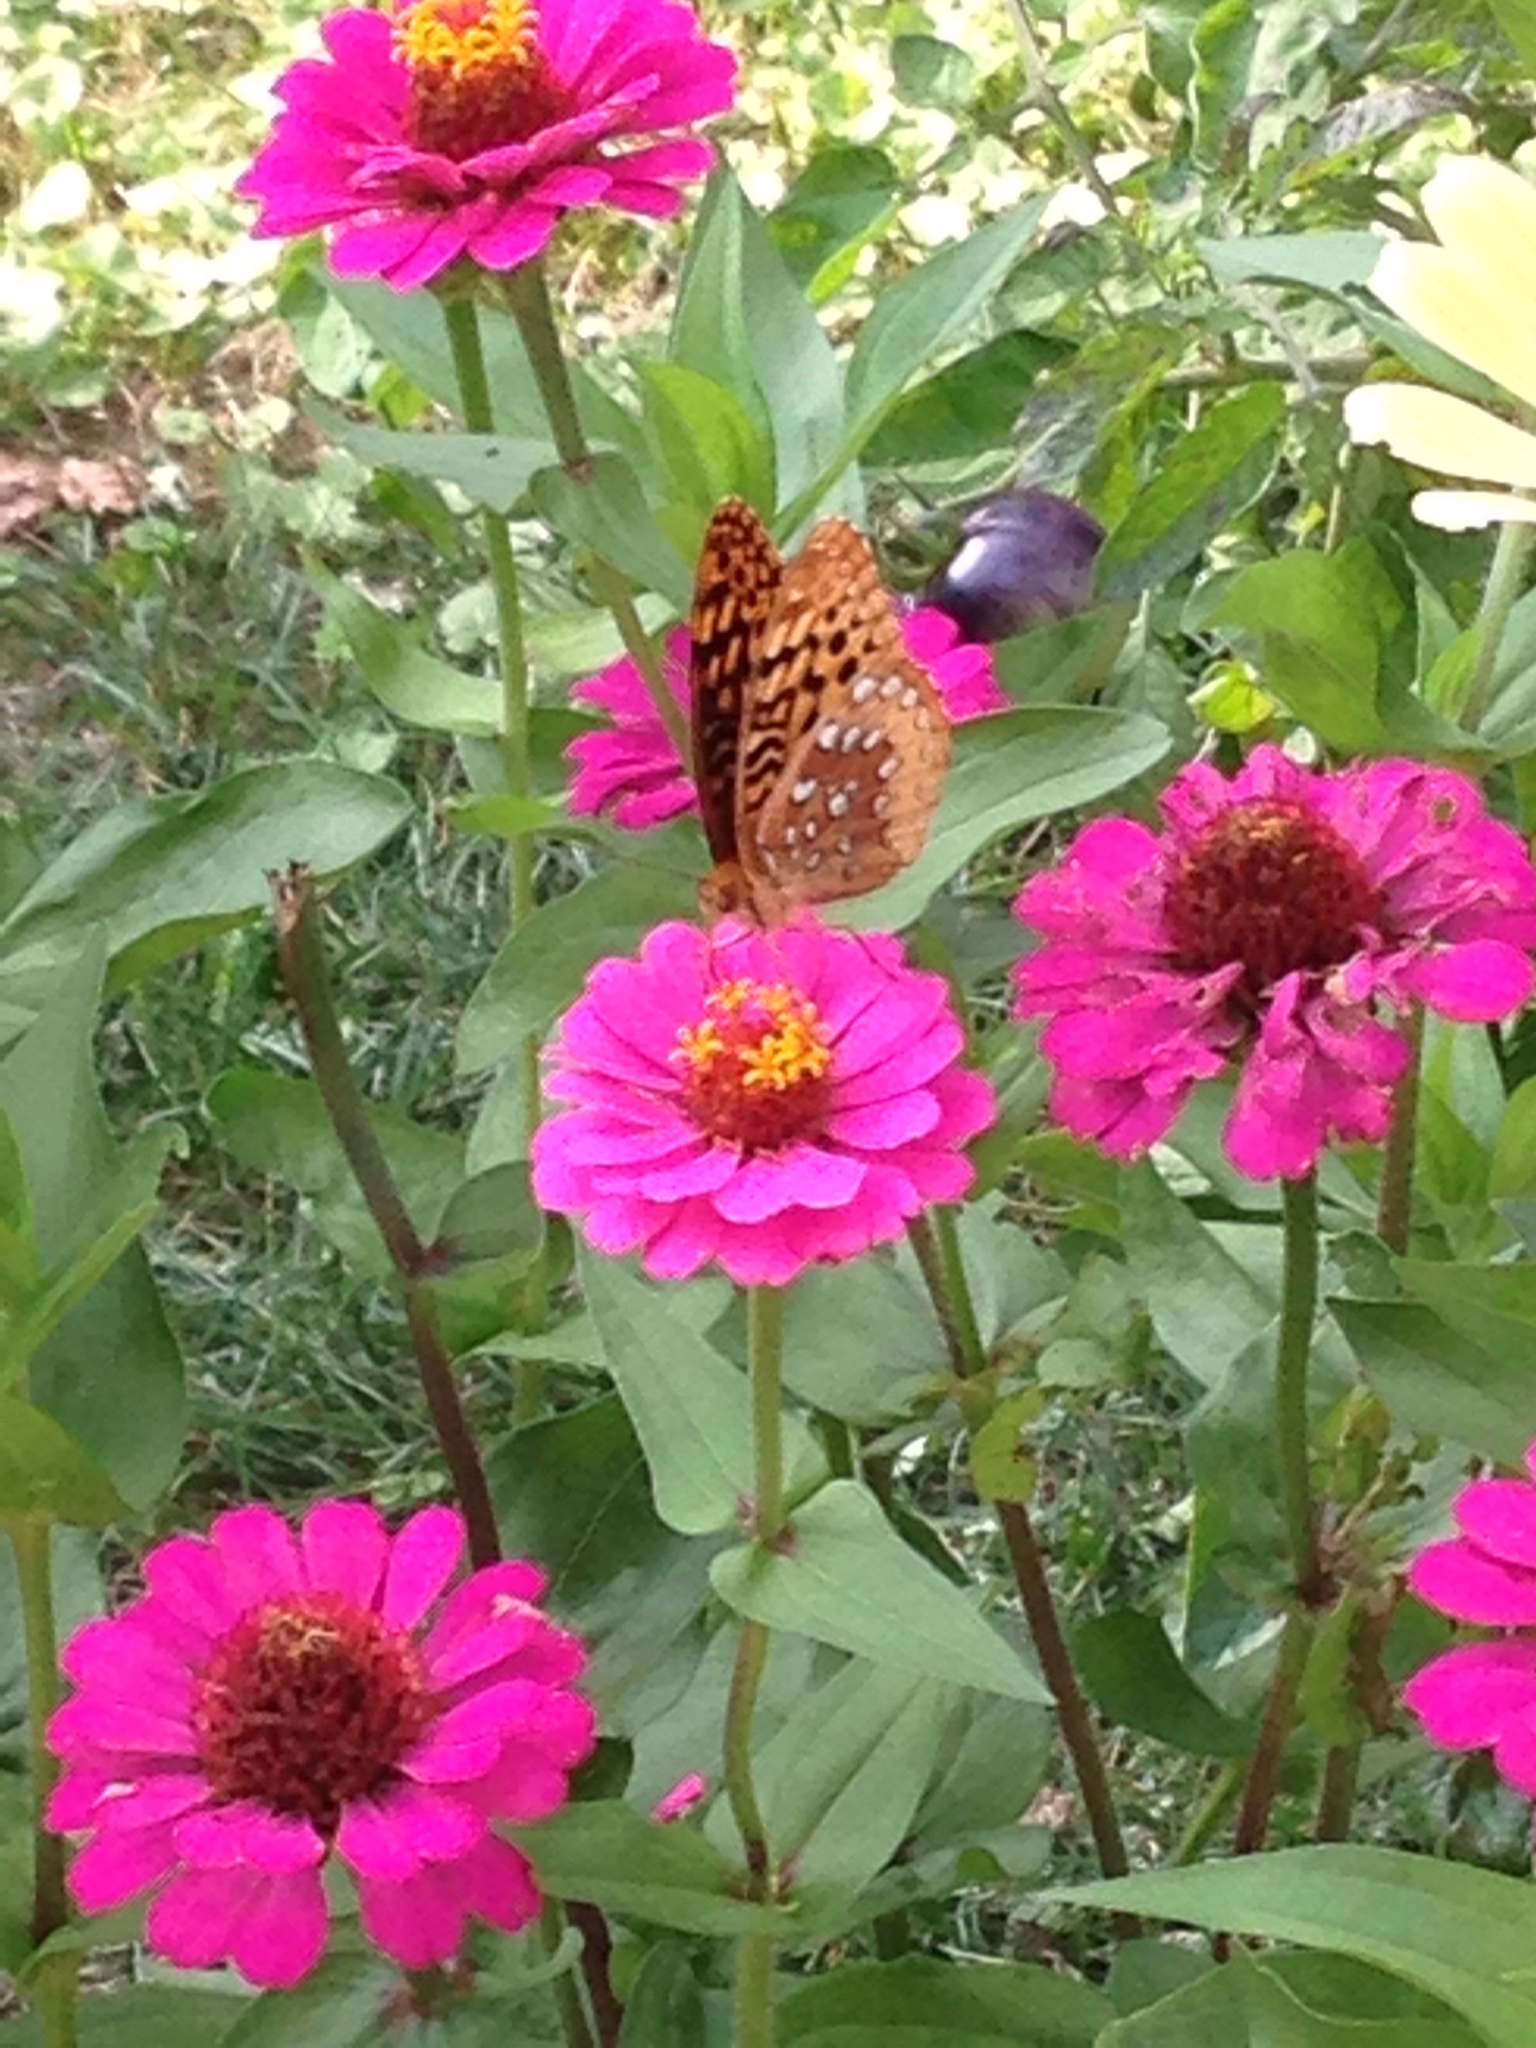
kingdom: Animalia
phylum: Arthropoda
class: Insecta
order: Lepidoptera
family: Nymphalidae
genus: Speyeria
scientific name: Speyeria cybele
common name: Great spangled fritillary
